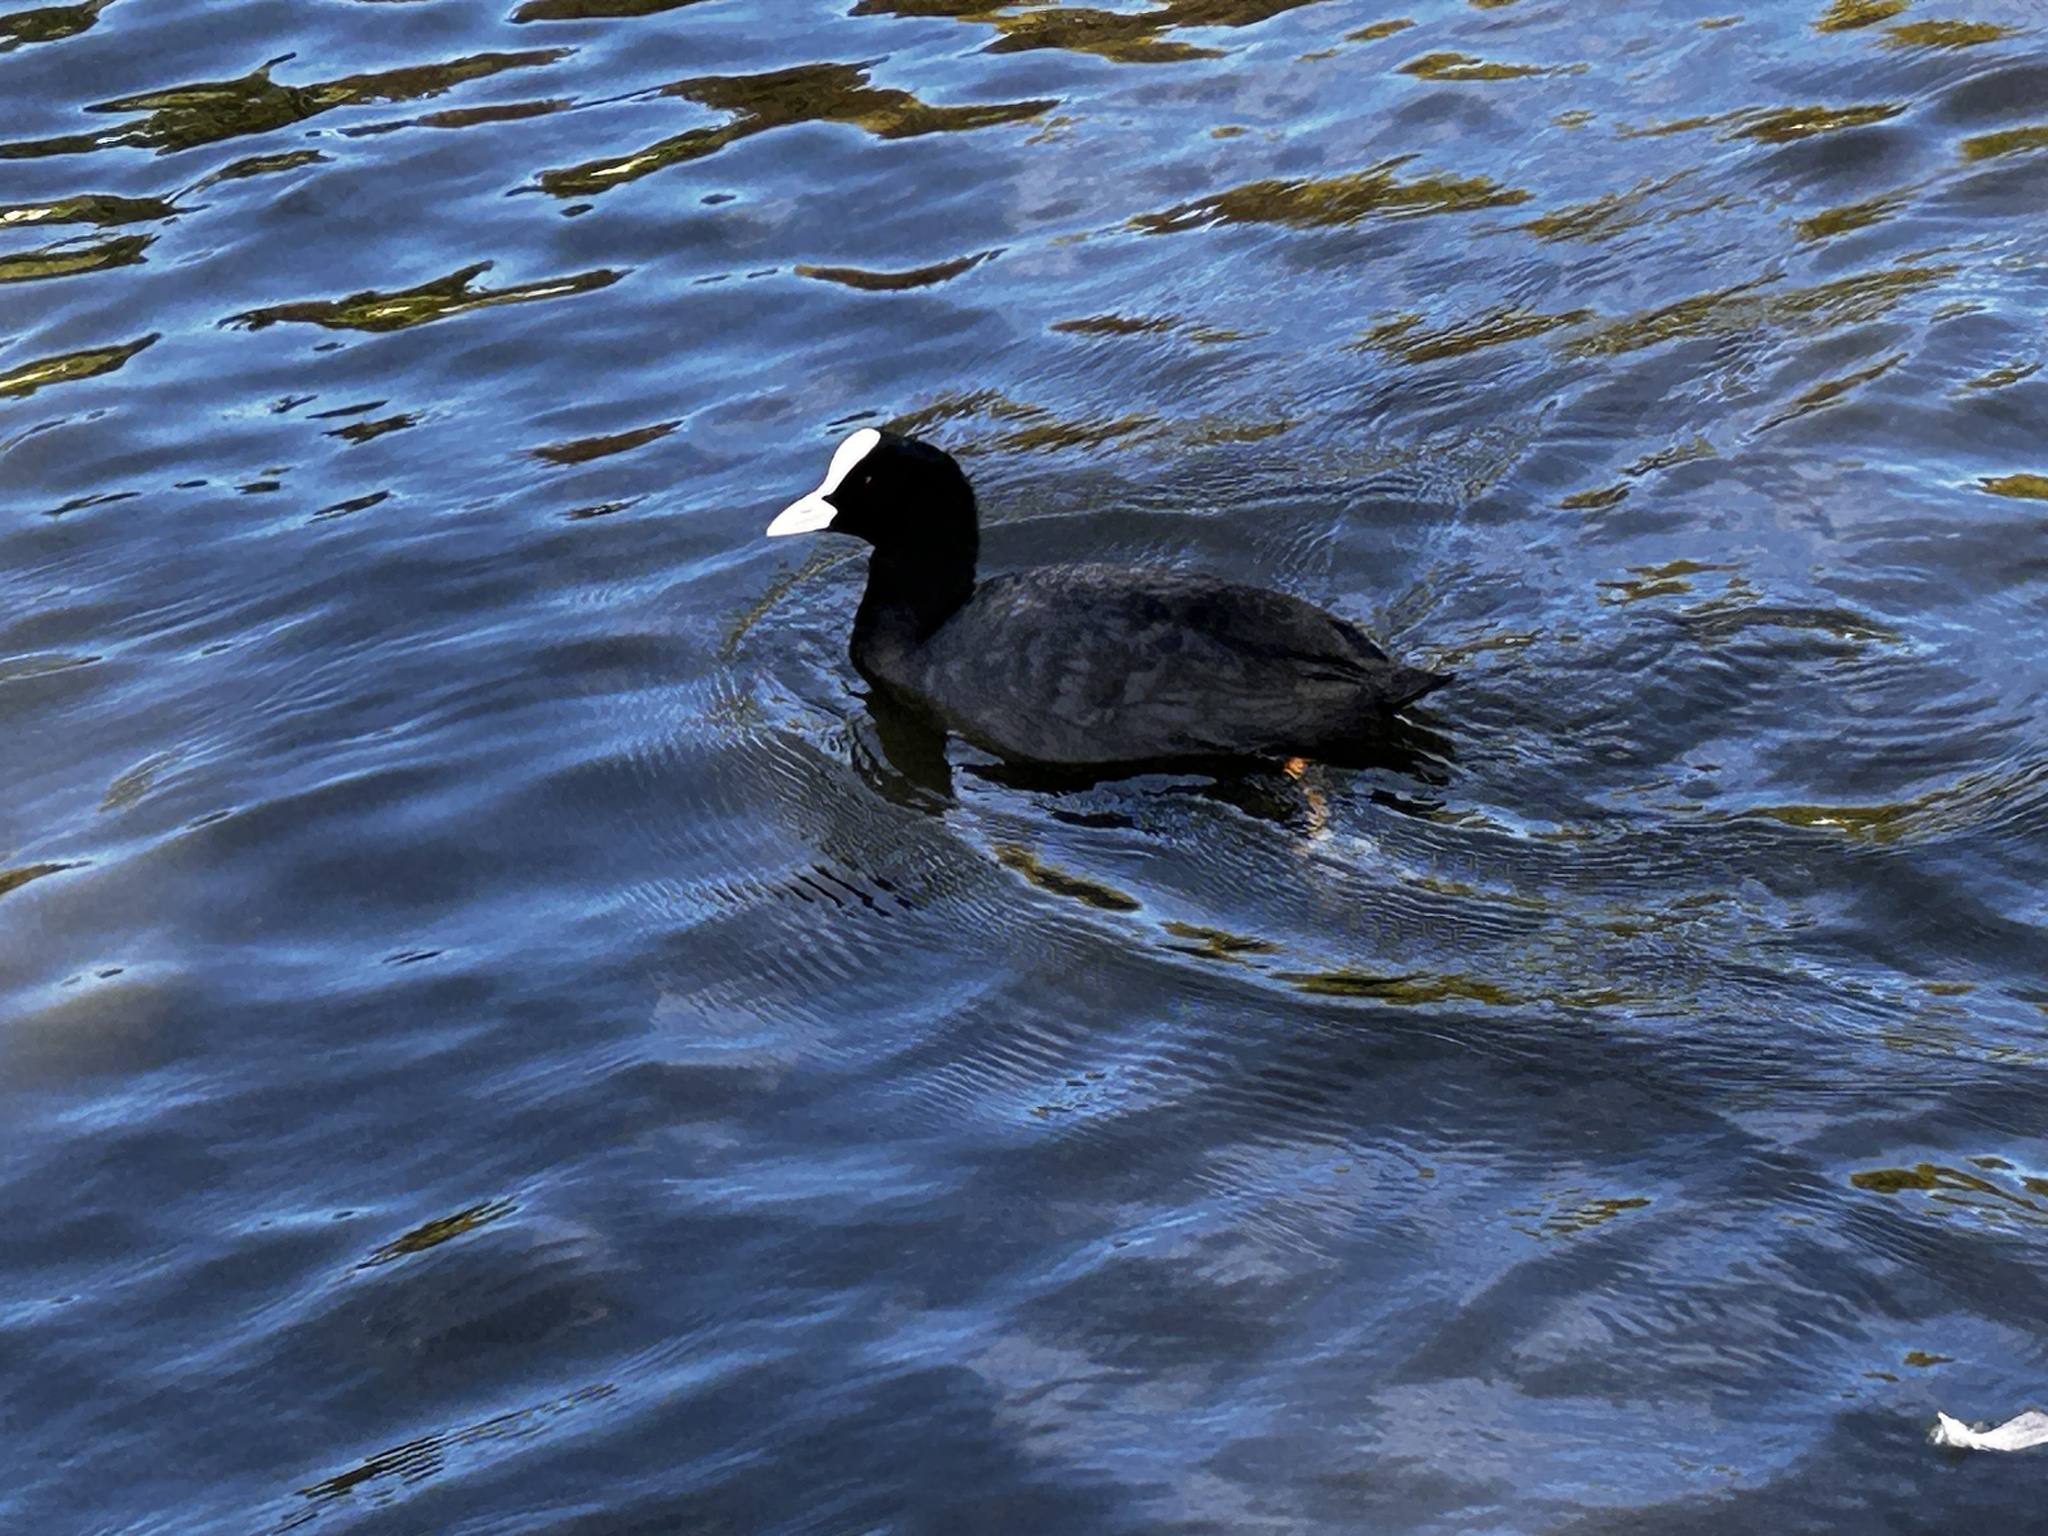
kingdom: Animalia
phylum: Chordata
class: Aves
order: Gruiformes
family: Rallidae
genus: Fulica
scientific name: Fulica atra
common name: Eurasian coot
